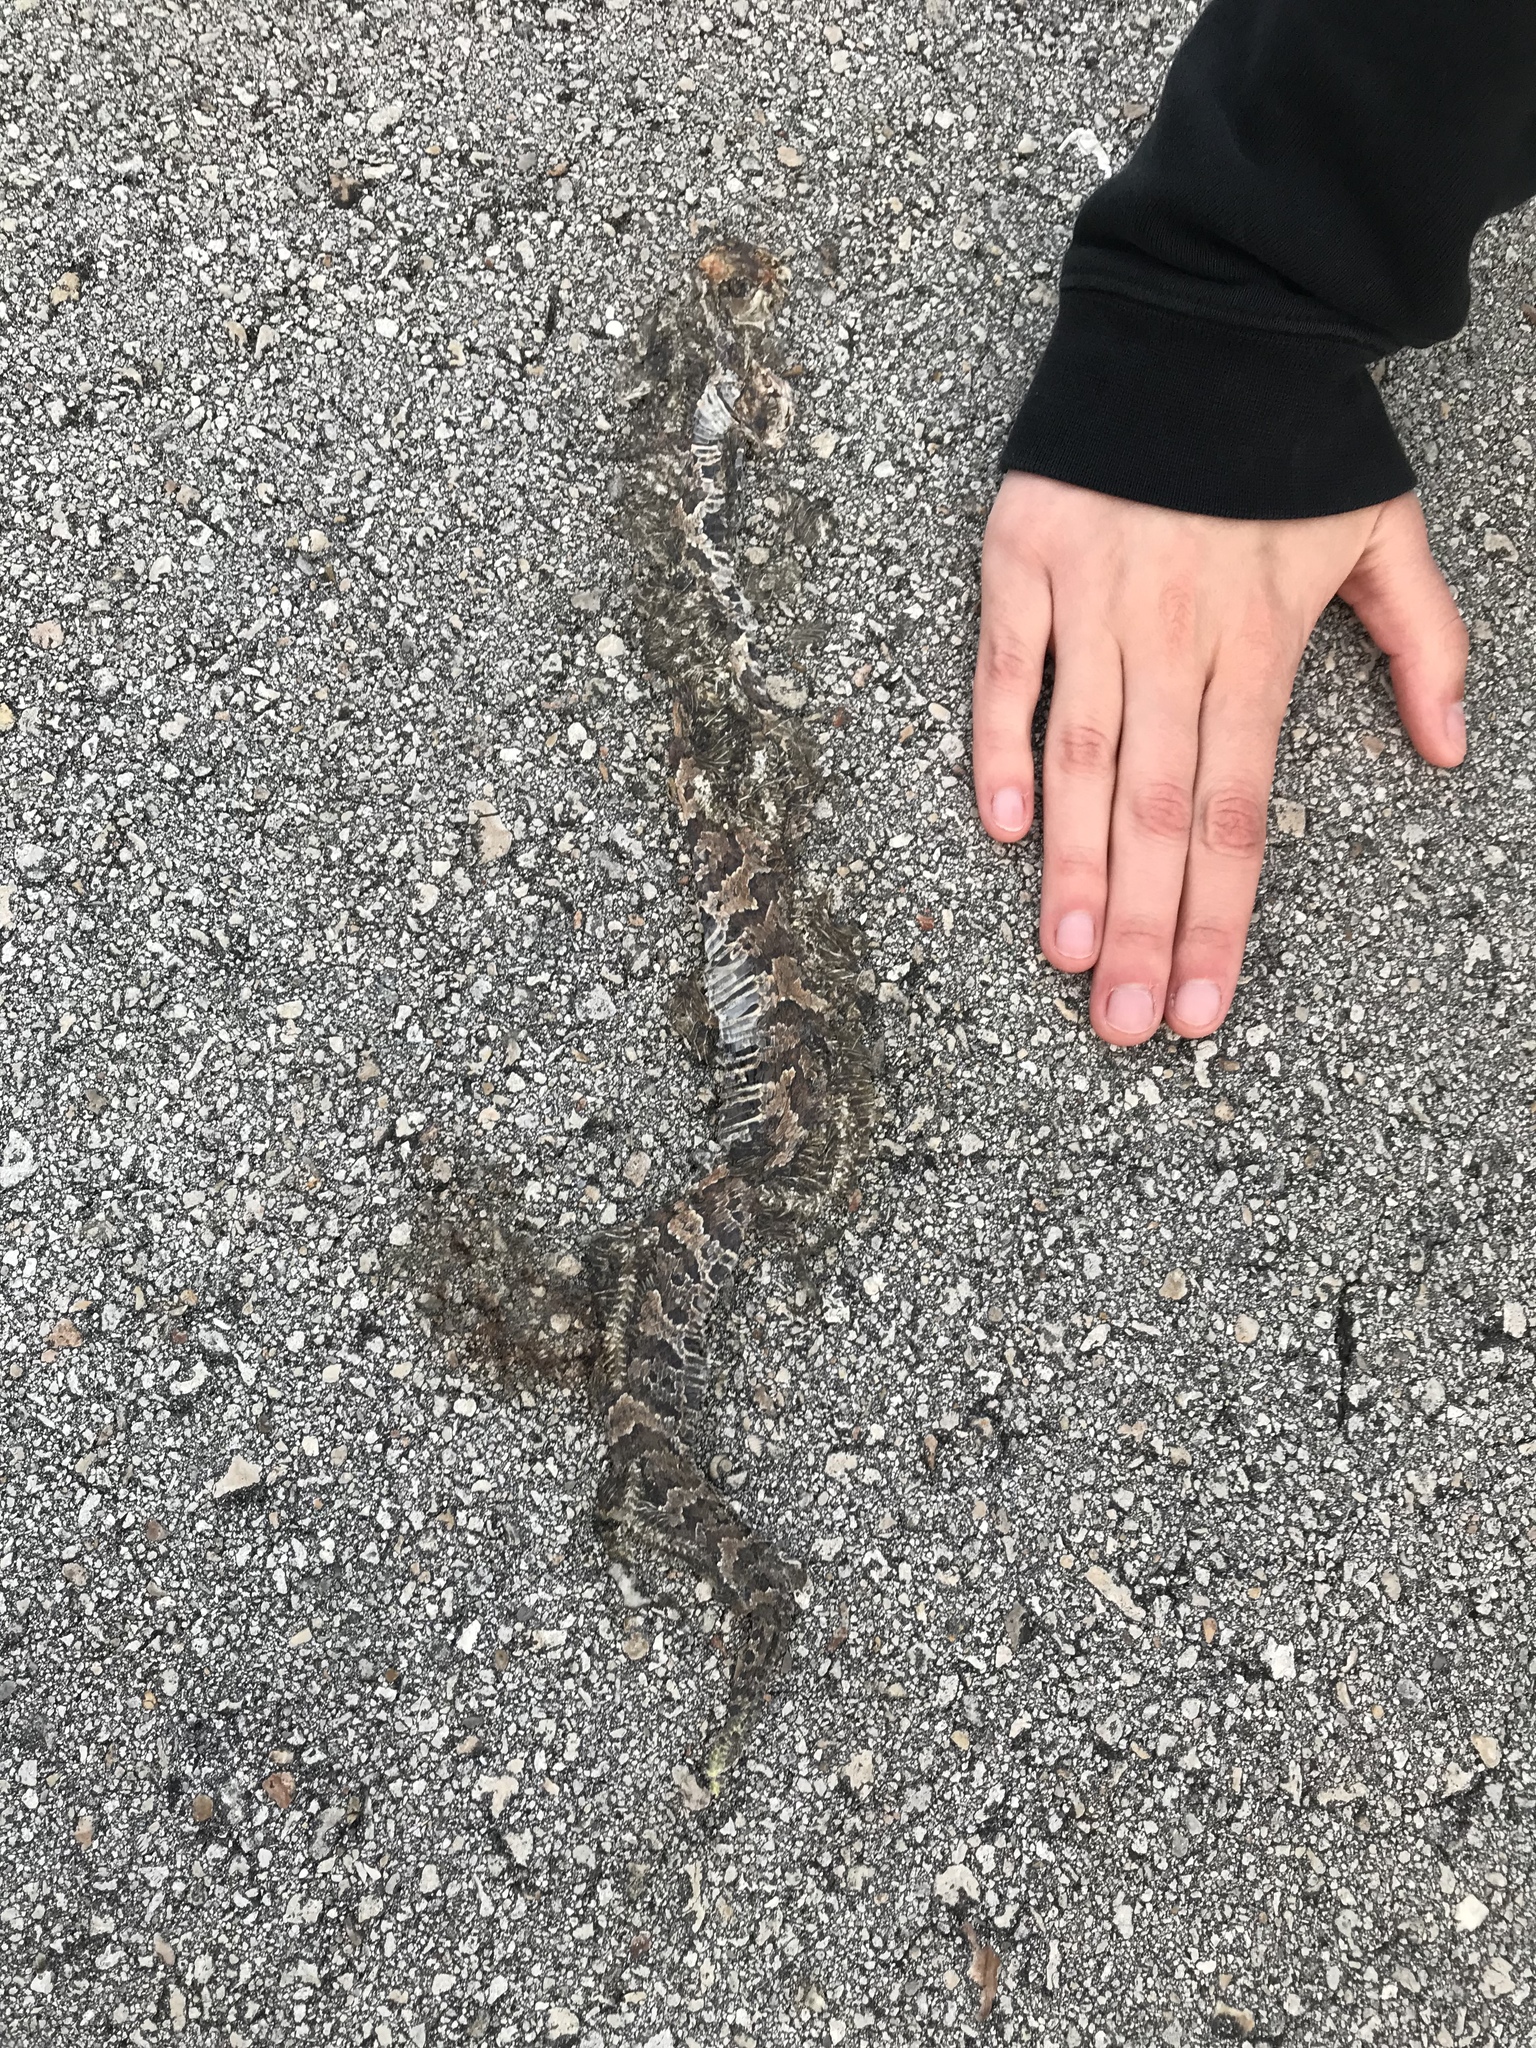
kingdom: Animalia
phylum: Chordata
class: Squamata
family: Viperidae
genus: Agkistrodon
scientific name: Agkistrodon conanti
